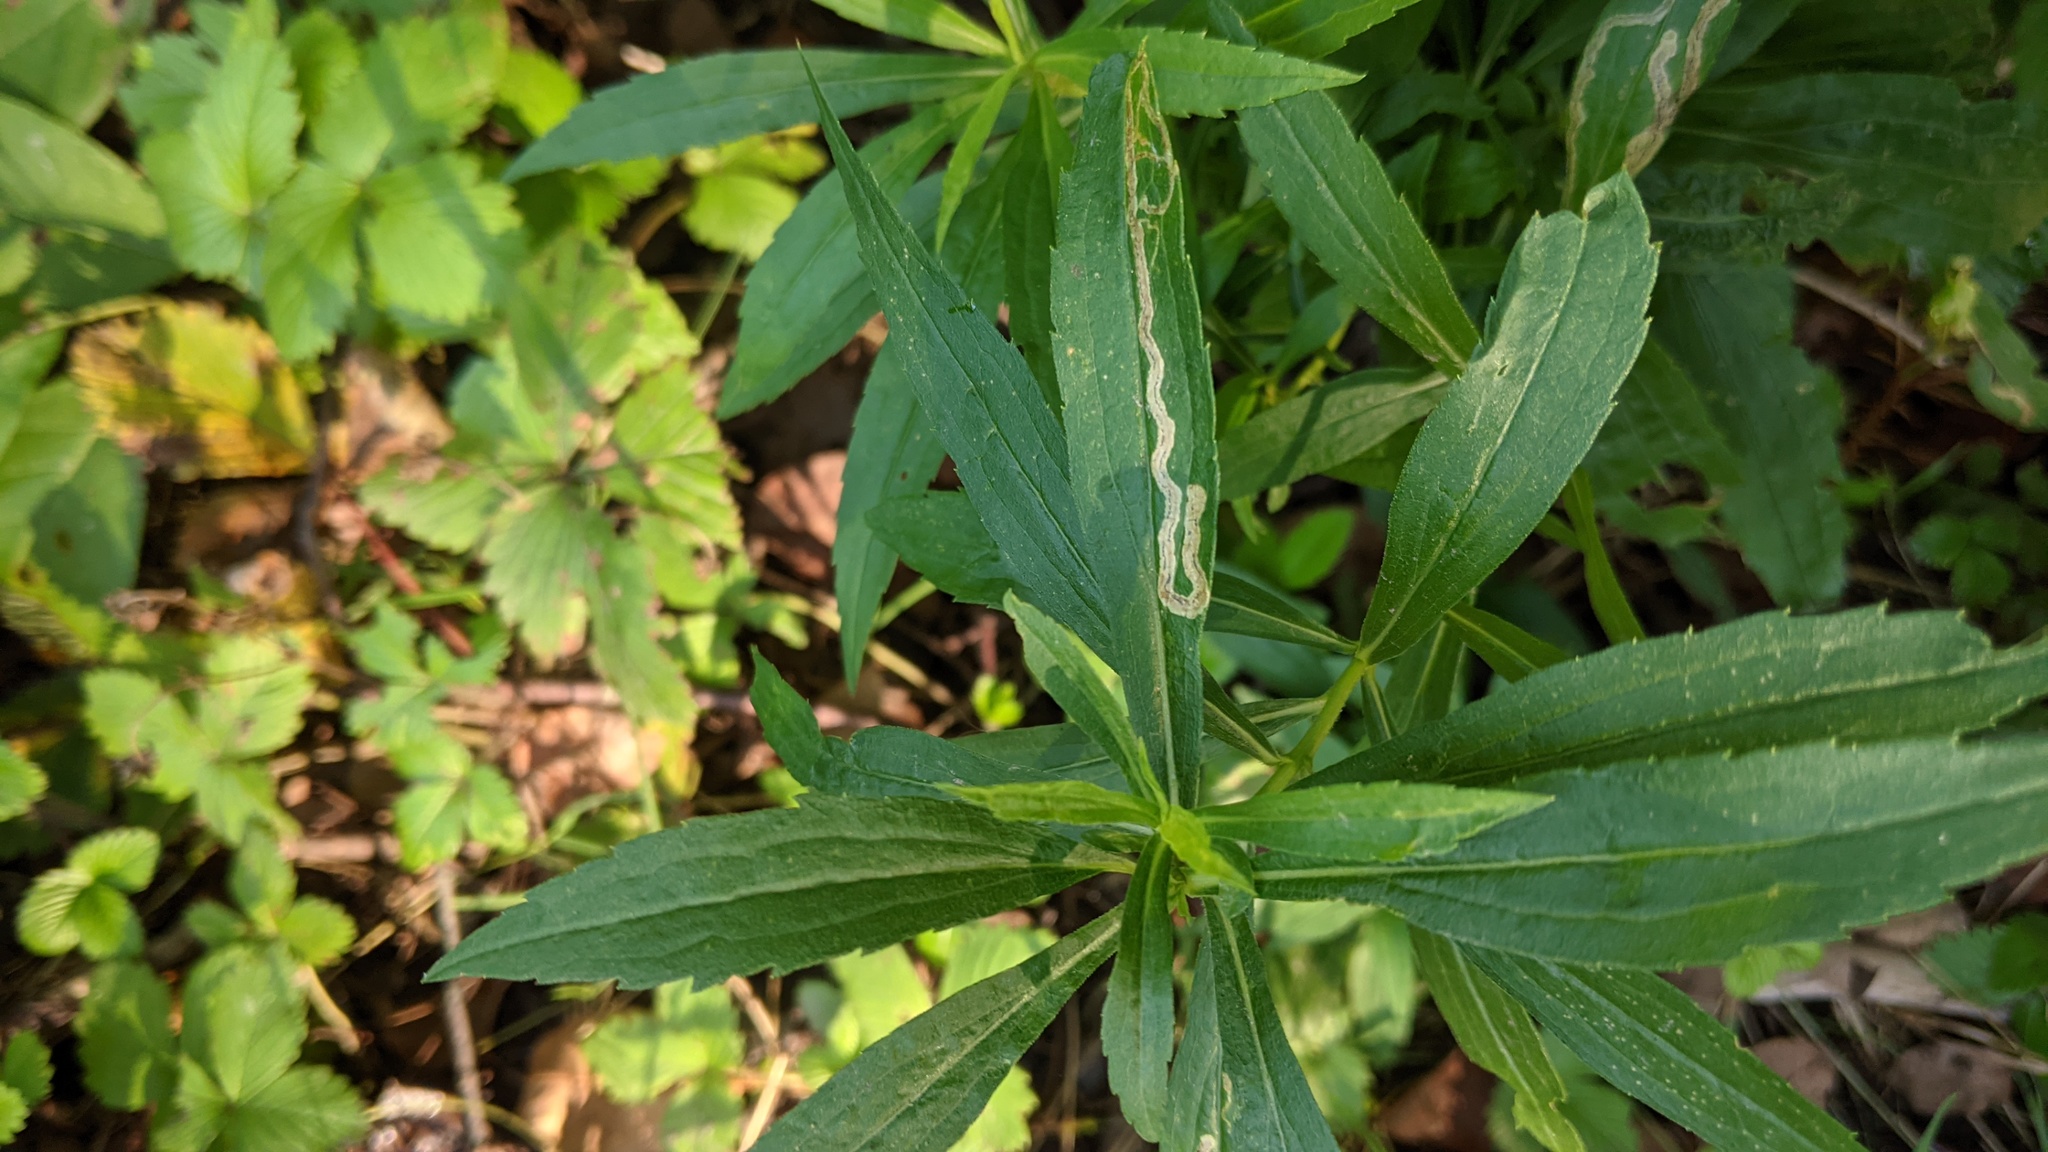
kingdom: Animalia
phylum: Arthropoda
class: Insecta
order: Diptera
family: Agromyzidae
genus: Liriomyza
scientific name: Liriomyza eupatorii
